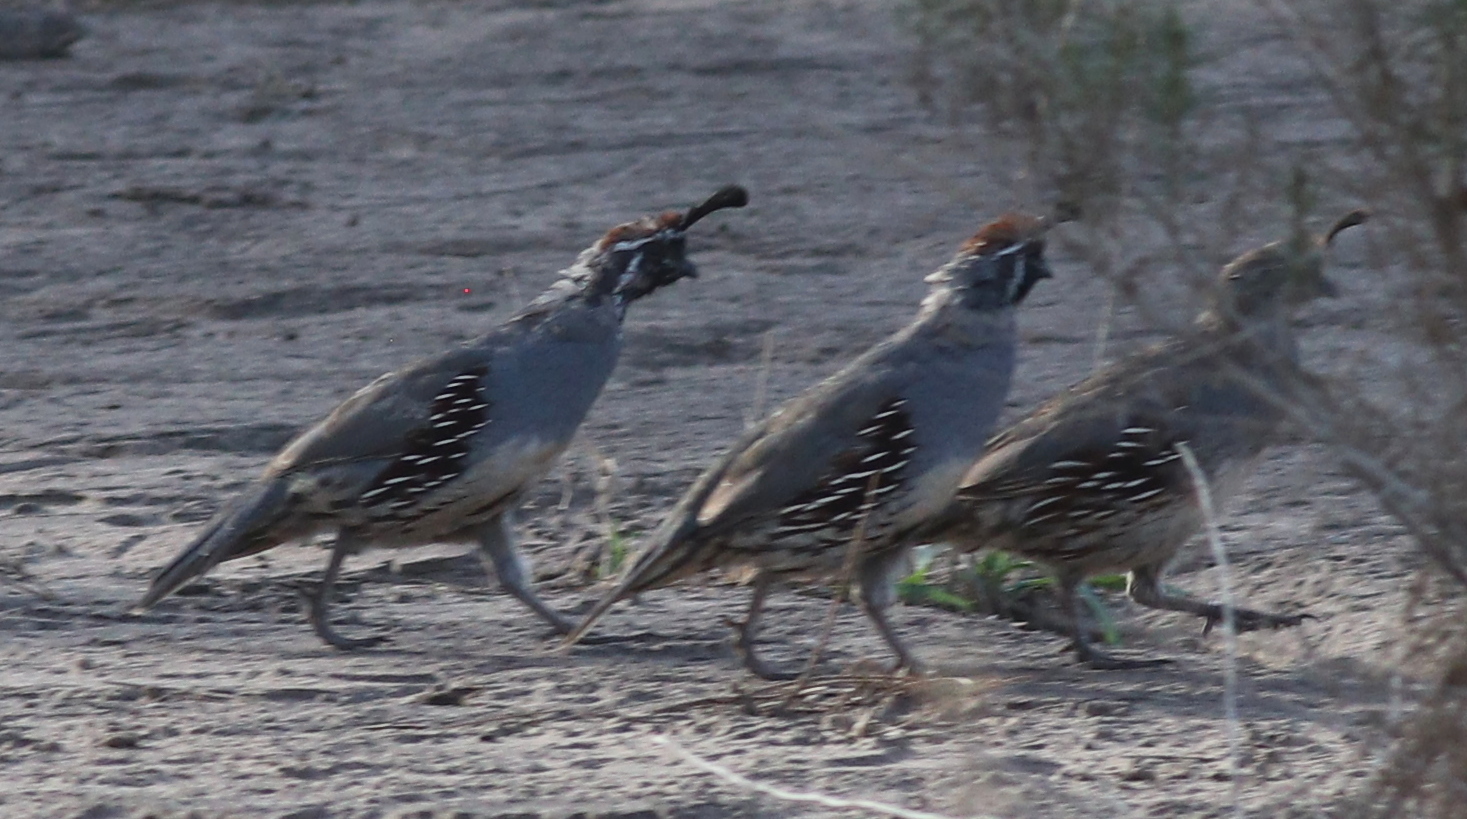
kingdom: Animalia
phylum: Chordata
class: Aves
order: Galliformes
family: Odontophoridae
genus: Callipepla
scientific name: Callipepla gambelii
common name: Gambel's quail
